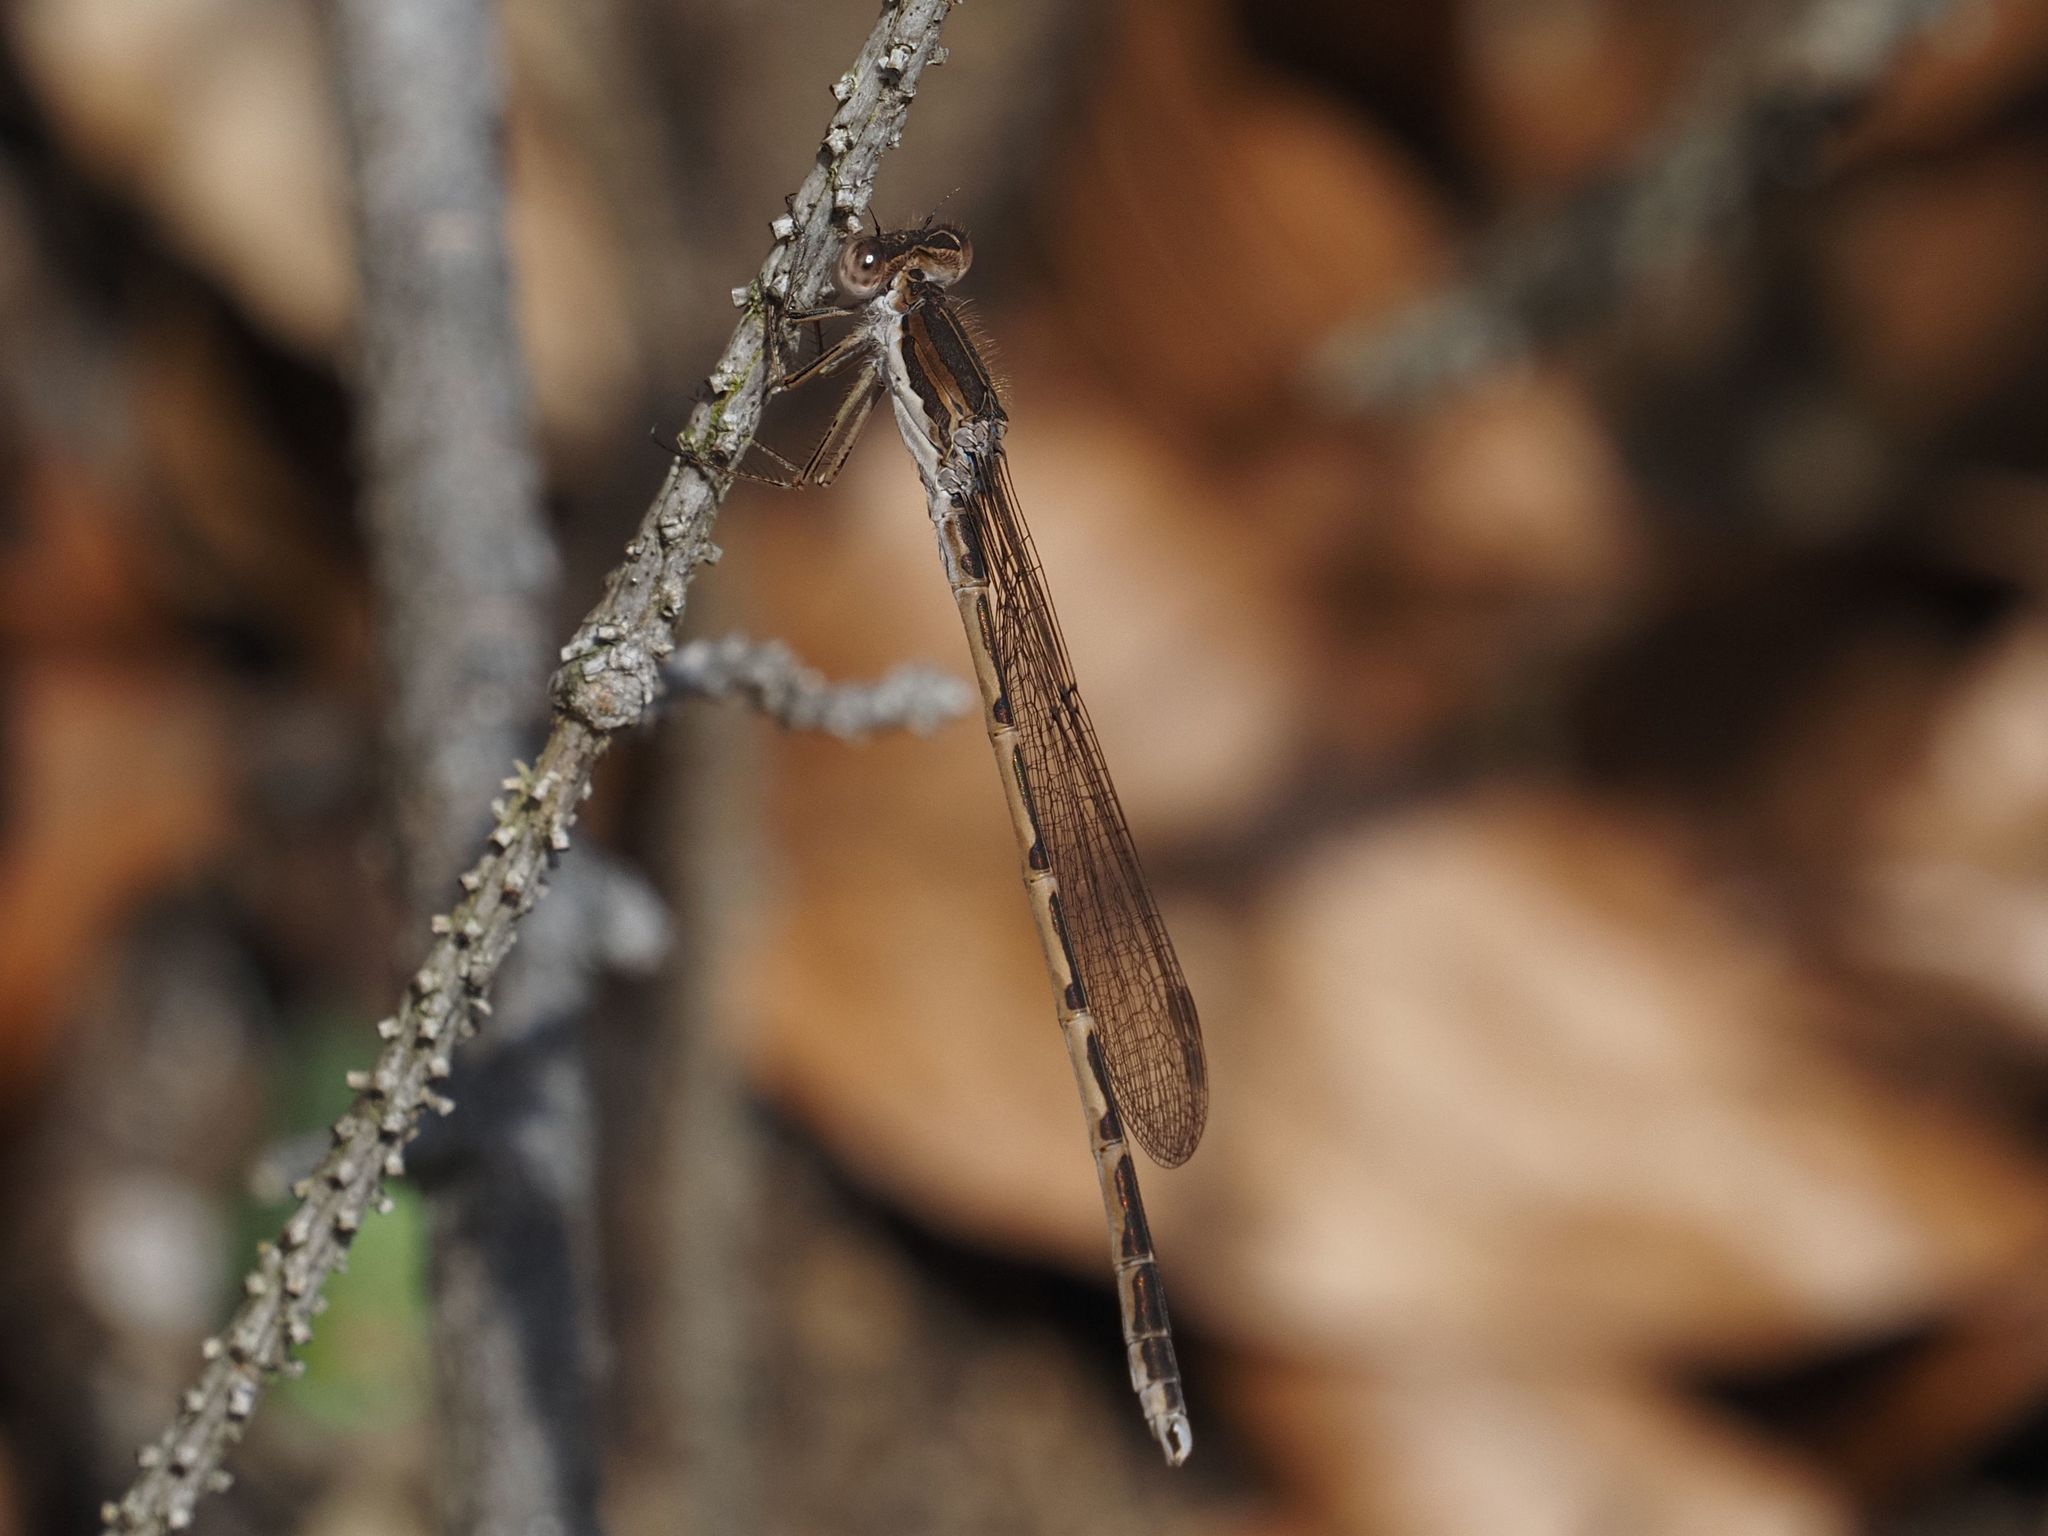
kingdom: Animalia
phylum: Arthropoda
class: Insecta
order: Odonata
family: Lestidae
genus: Sympecma
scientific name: Sympecma fusca
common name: Common winter damsel
